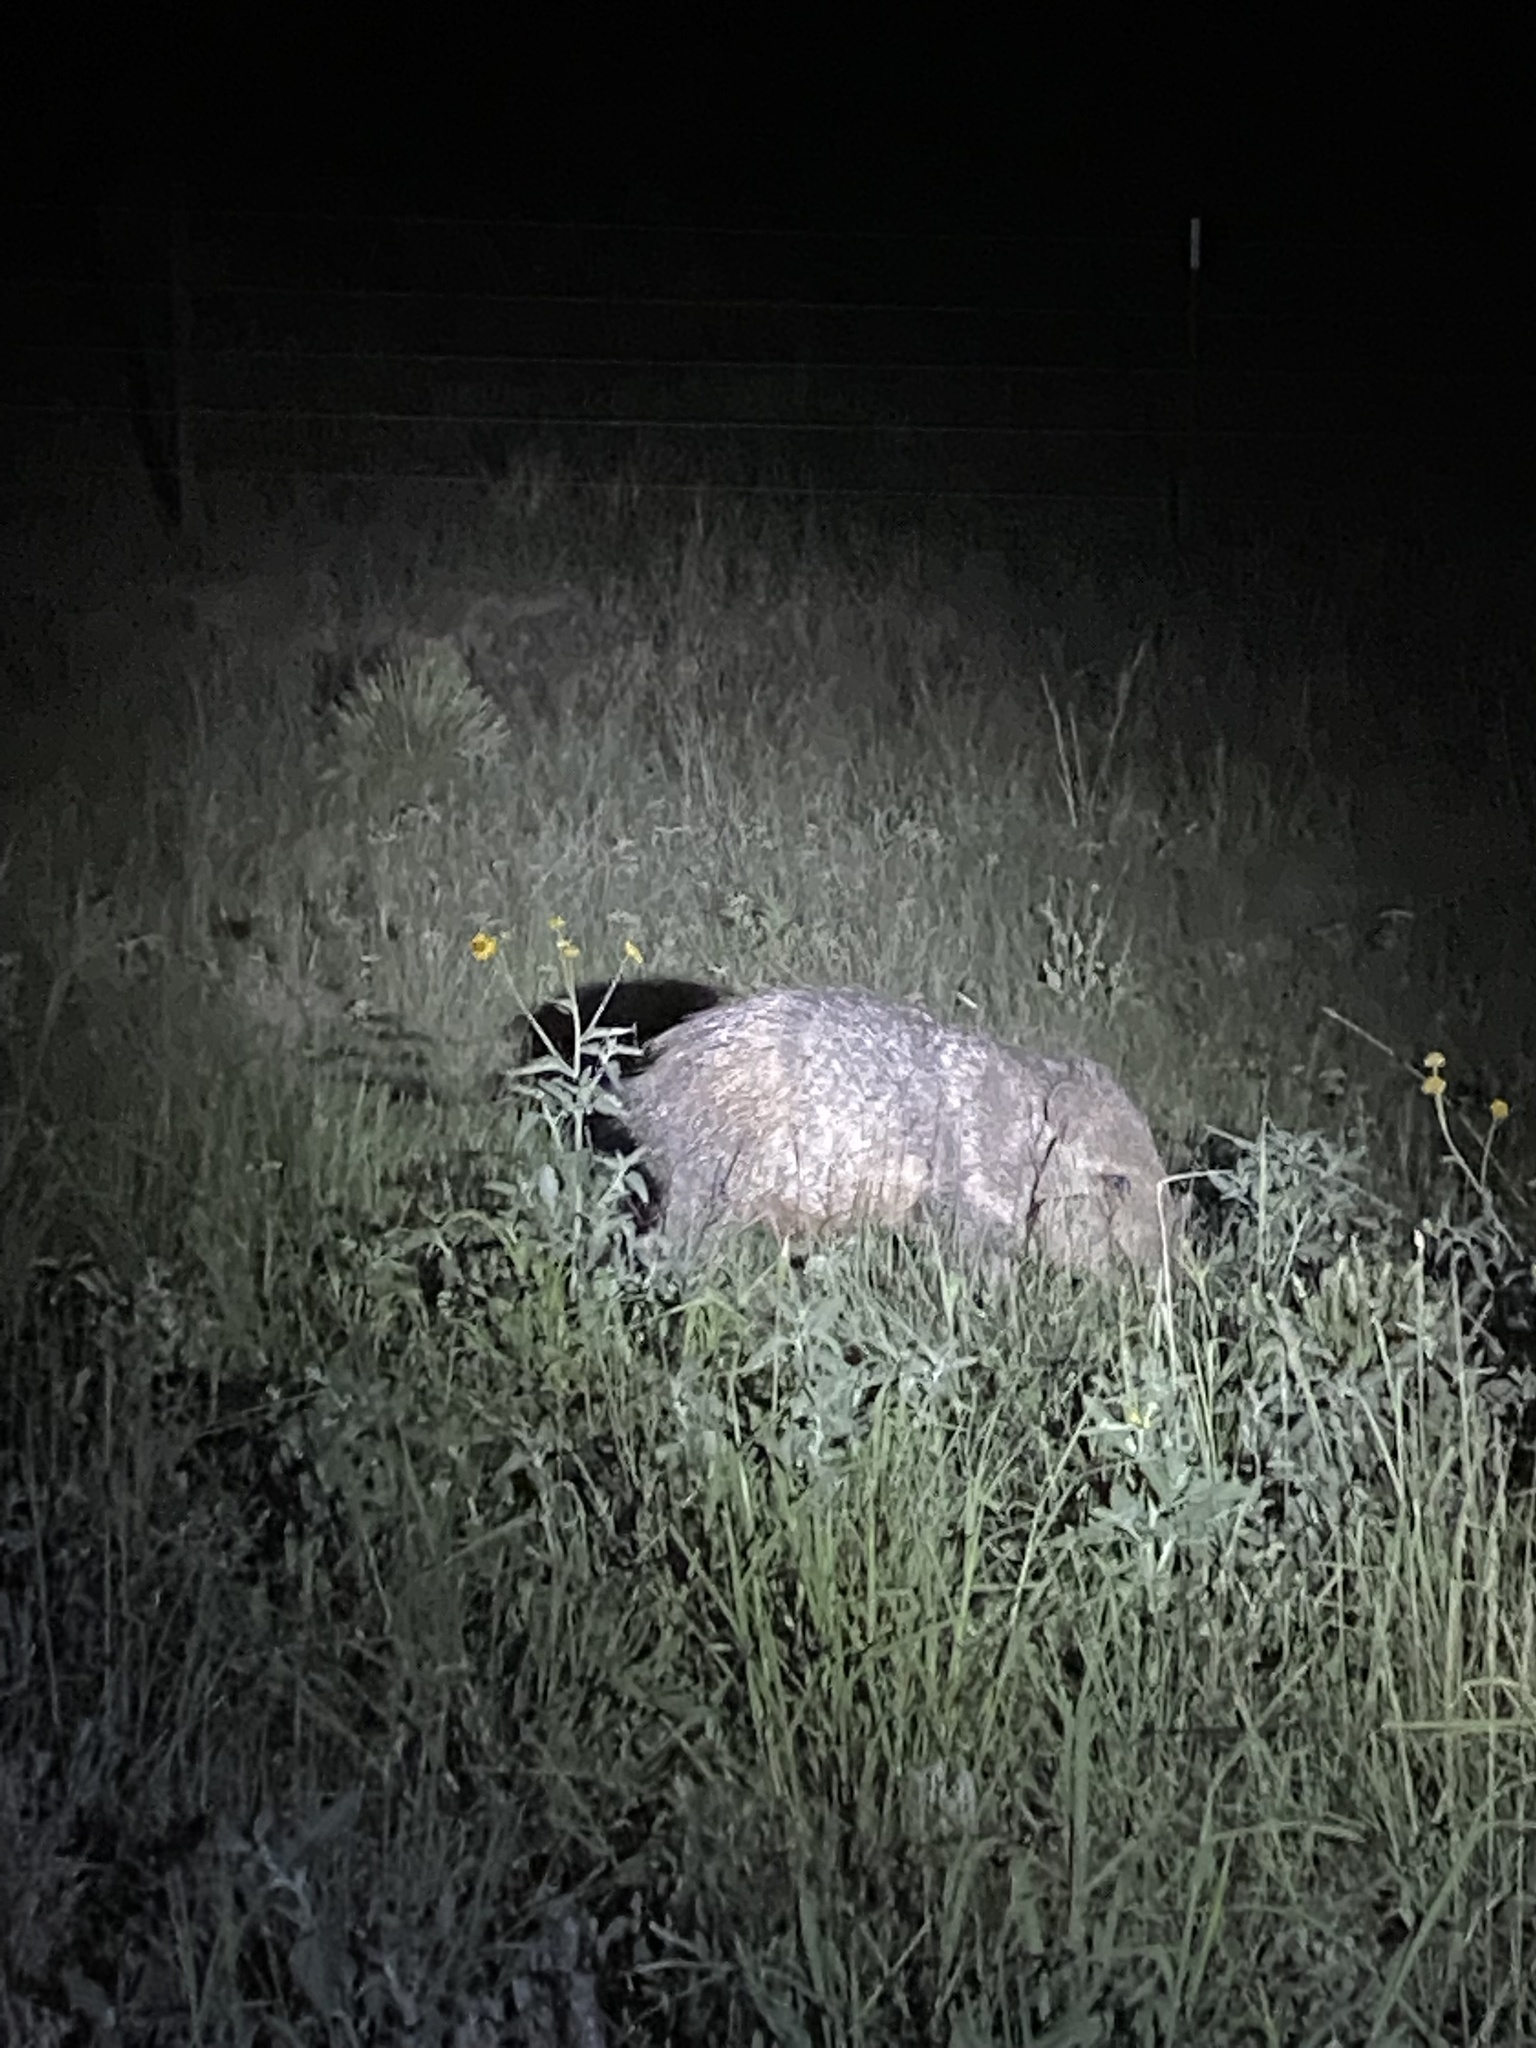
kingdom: Animalia
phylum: Chordata
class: Mammalia
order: Artiodactyla
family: Tayassuidae
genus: Pecari
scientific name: Pecari tajacu
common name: Collared peccary
